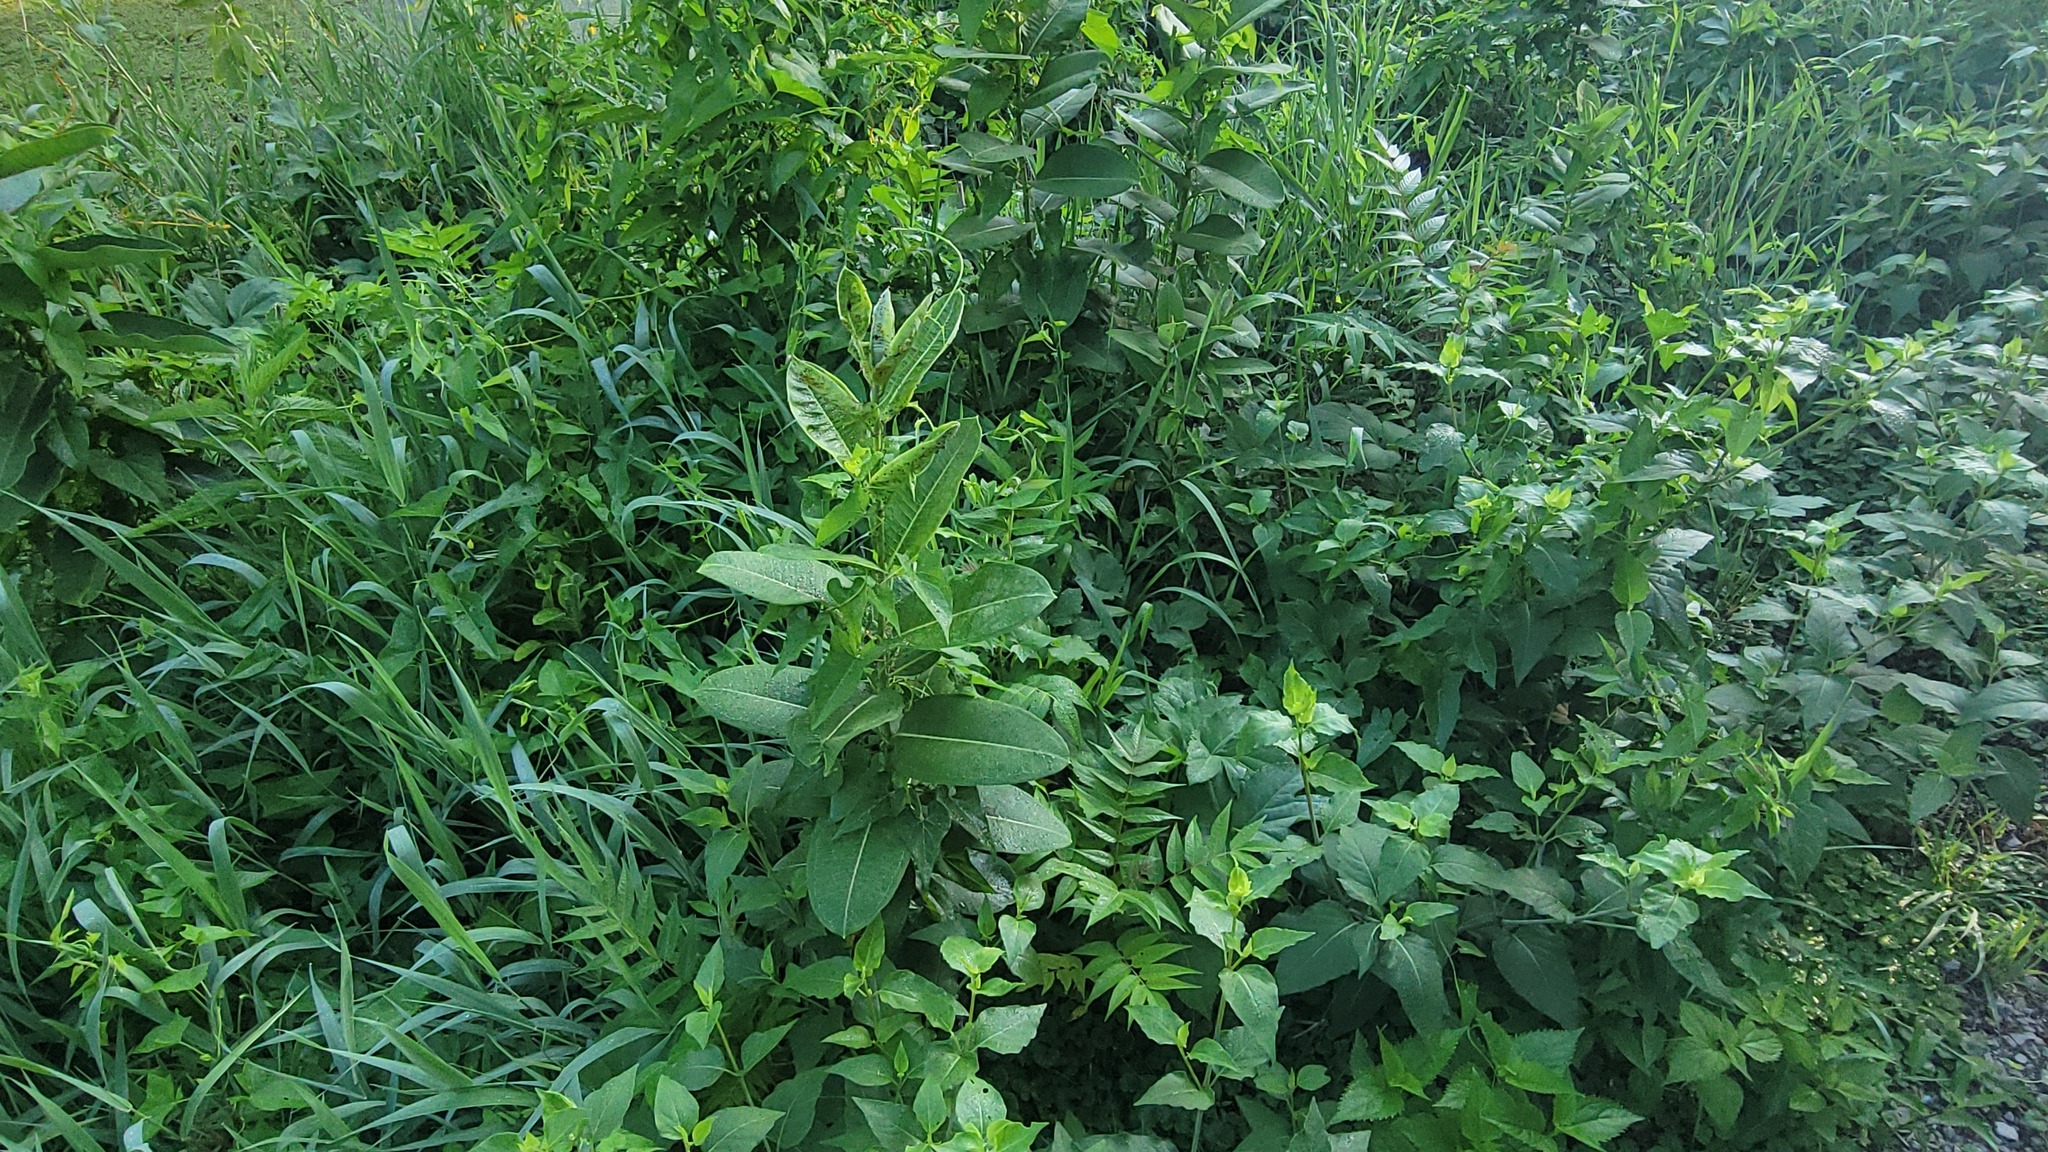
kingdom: Animalia
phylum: Arthropoda
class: Insecta
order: Hemiptera
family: Aphididae
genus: Aphis
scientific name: Aphis nerii
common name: Oleander aphid
